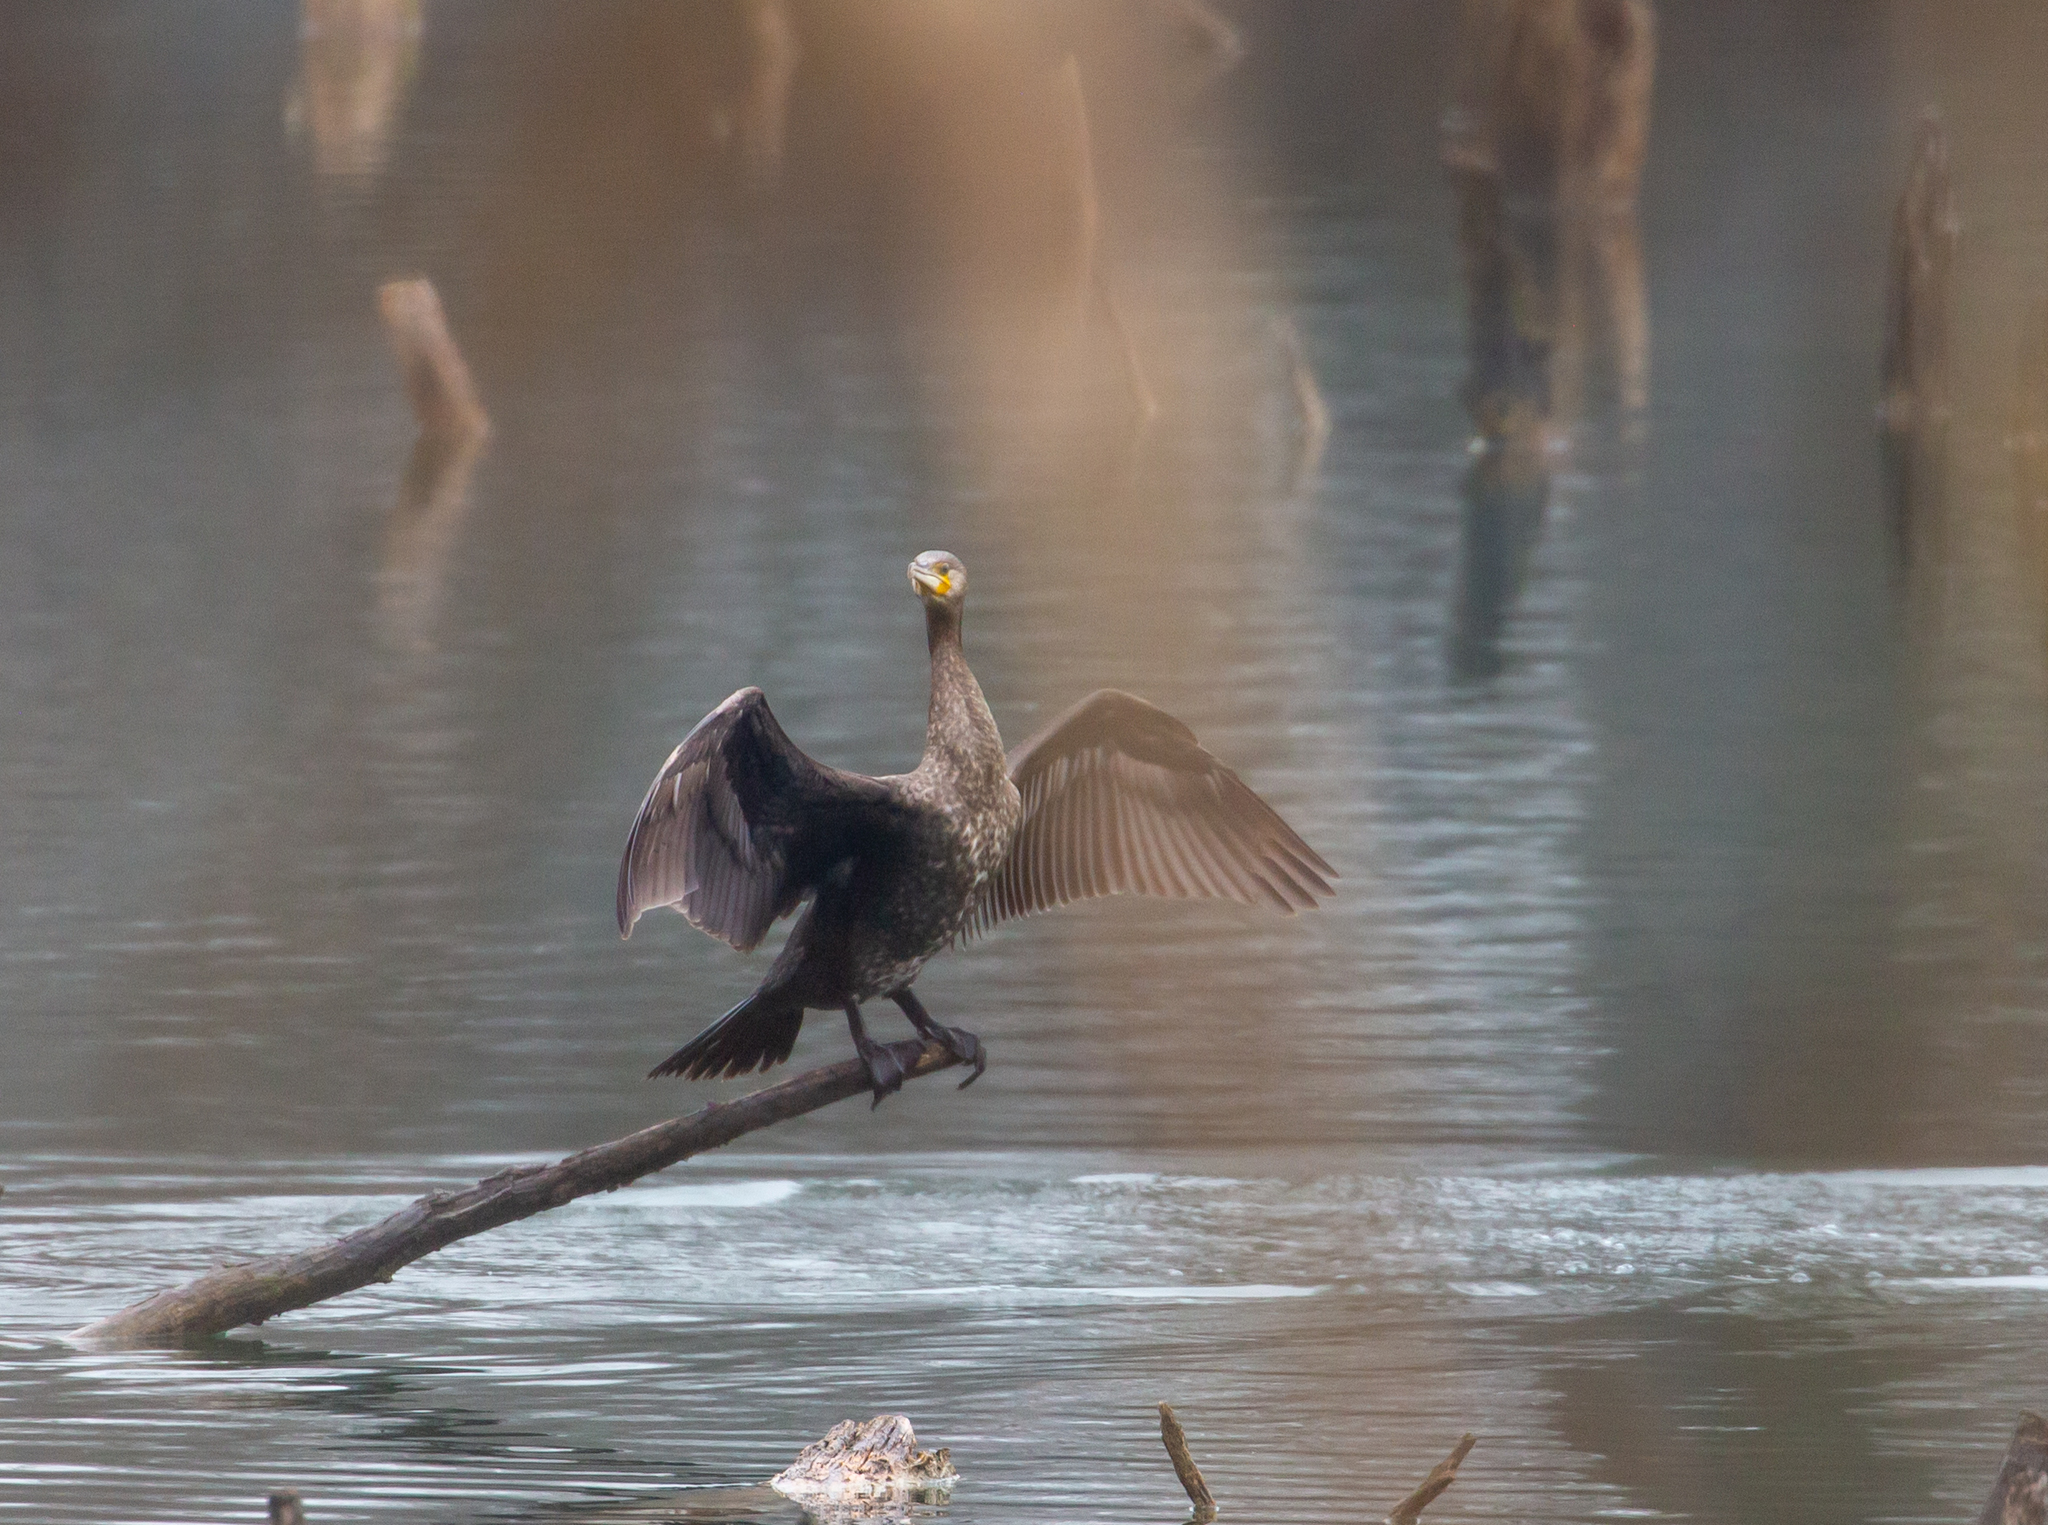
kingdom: Animalia
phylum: Chordata
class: Aves
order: Suliformes
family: Phalacrocoracidae
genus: Phalacrocorax
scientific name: Phalacrocorax carbo
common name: Great cormorant
